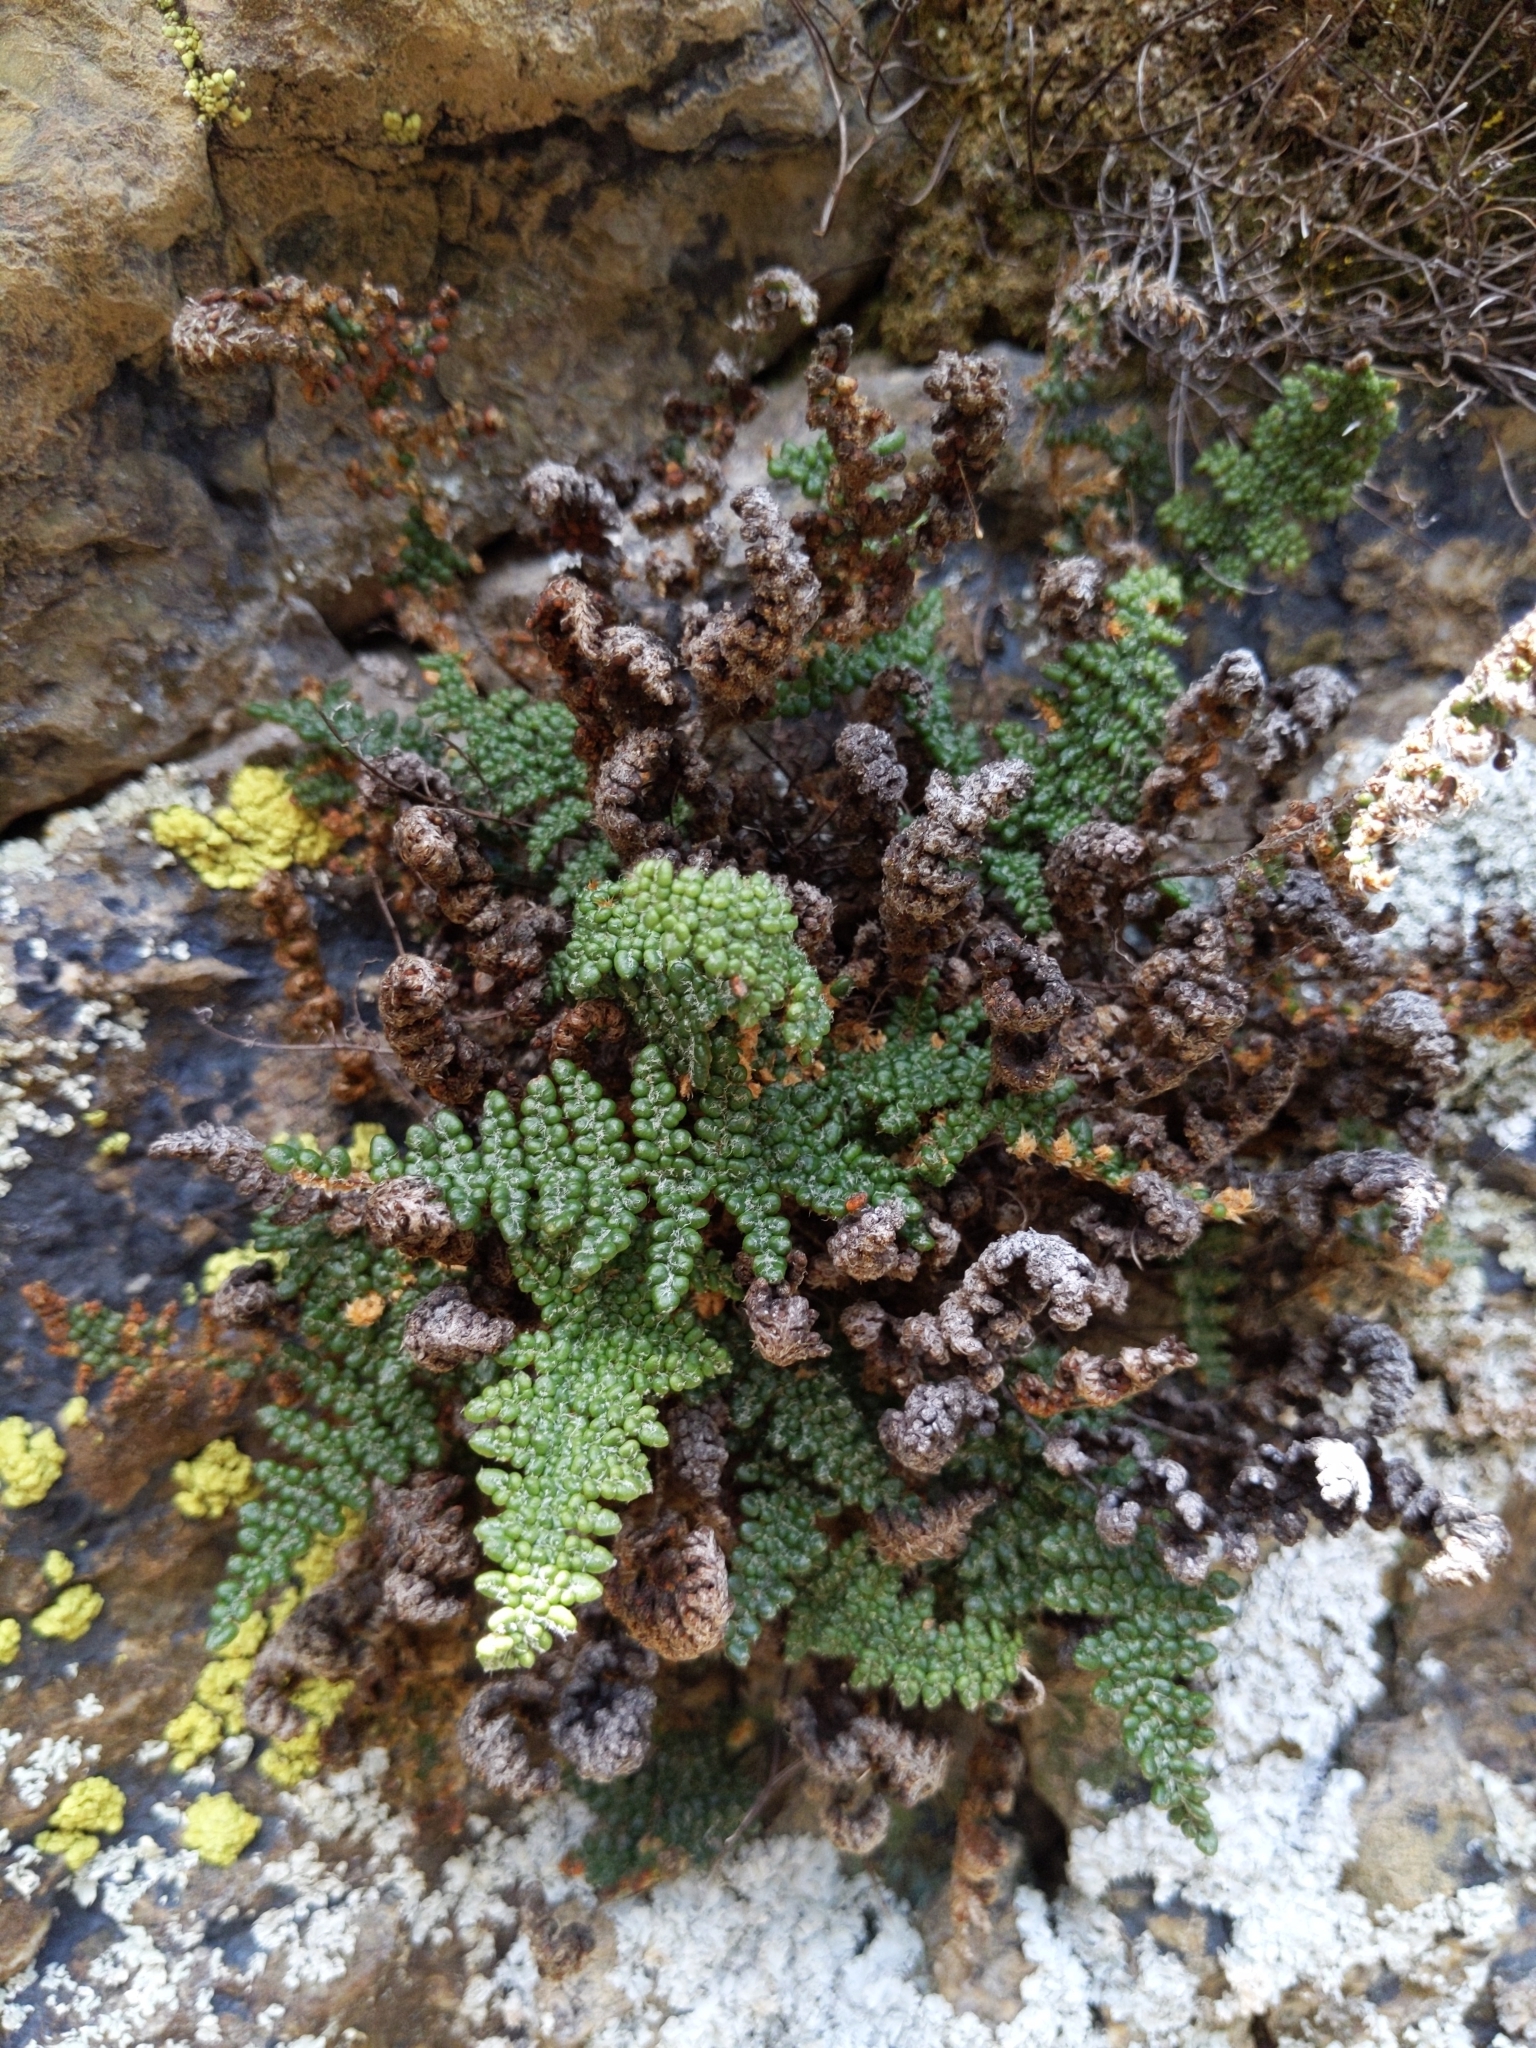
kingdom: Plantae
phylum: Tracheophyta
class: Polypodiopsida
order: Polypodiales
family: Pteridaceae
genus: Myriopteris
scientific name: Myriopteris intertexta
